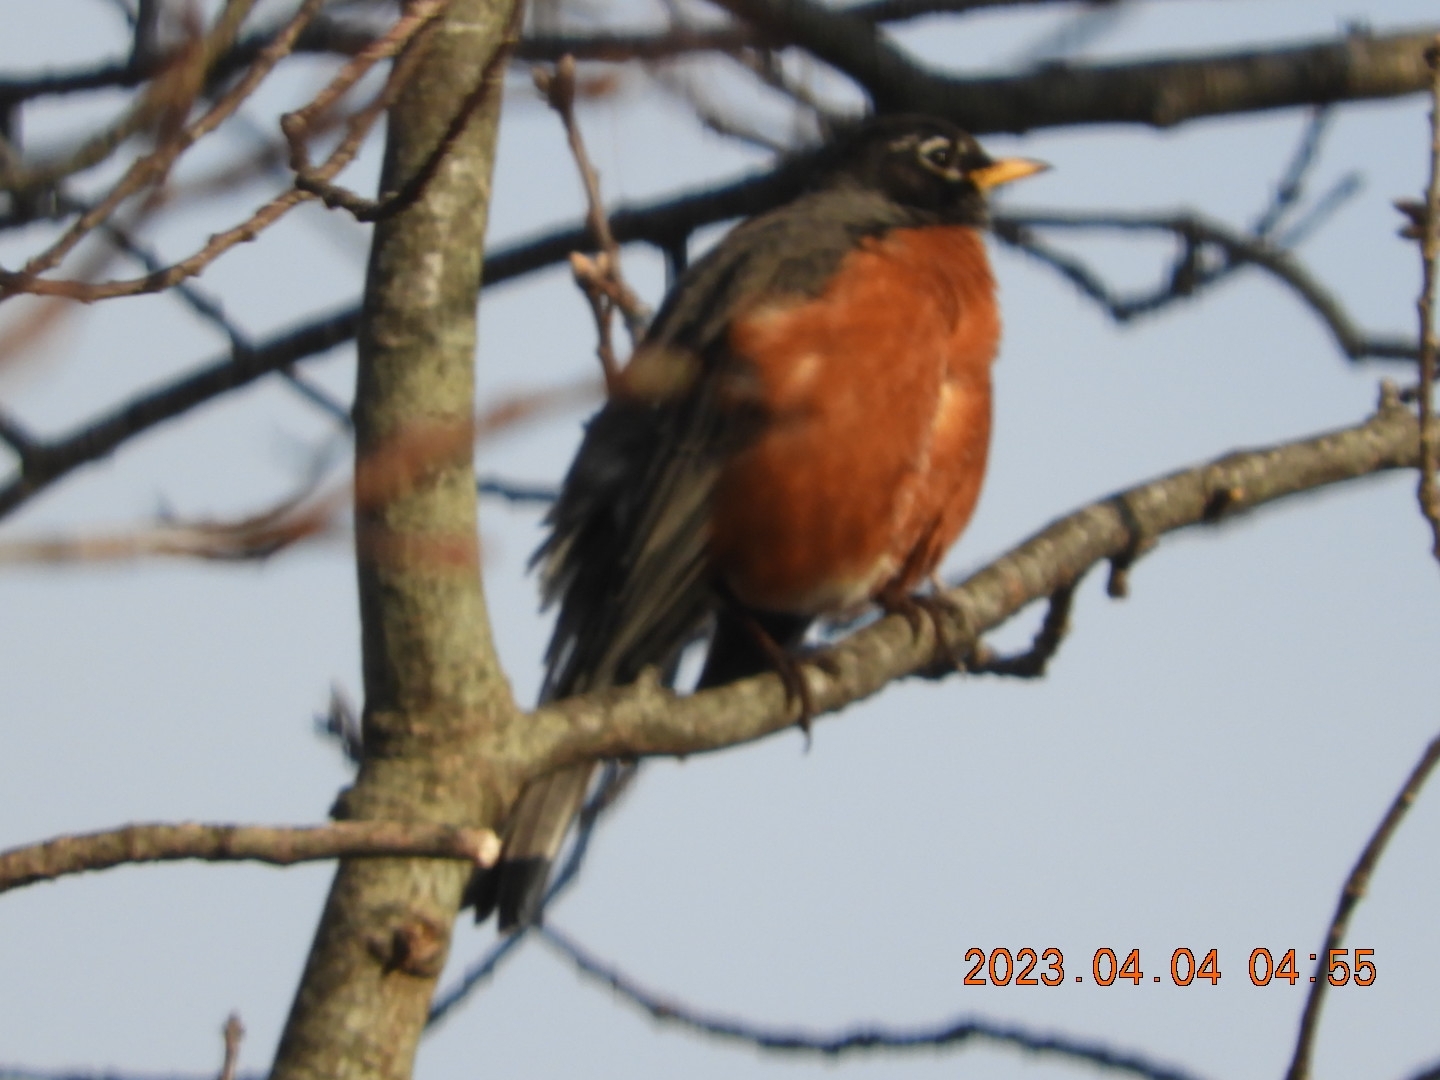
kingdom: Animalia
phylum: Chordata
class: Aves
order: Passeriformes
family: Turdidae
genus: Turdus
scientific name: Turdus migratorius
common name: American robin
